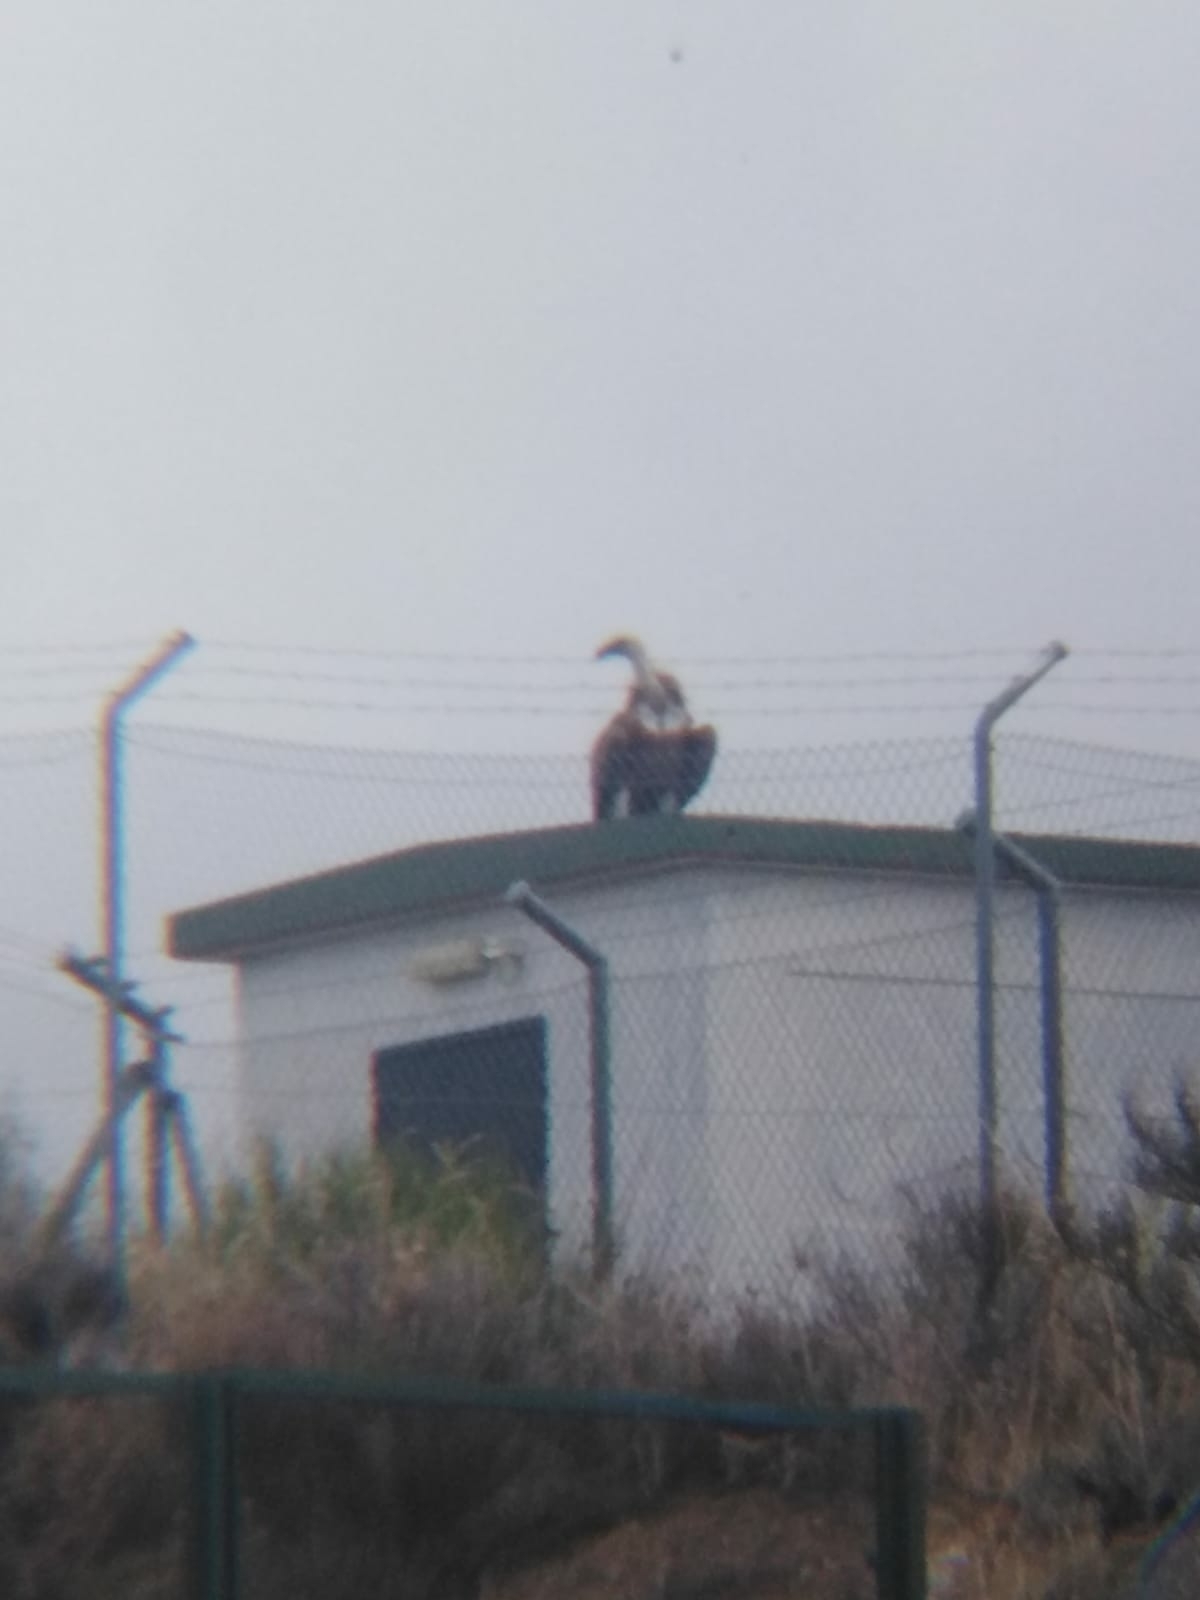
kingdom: Animalia
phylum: Chordata
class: Aves
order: Accipitriformes
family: Accipitridae
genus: Gyps
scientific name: Gyps fulvus
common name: Griffon vulture
